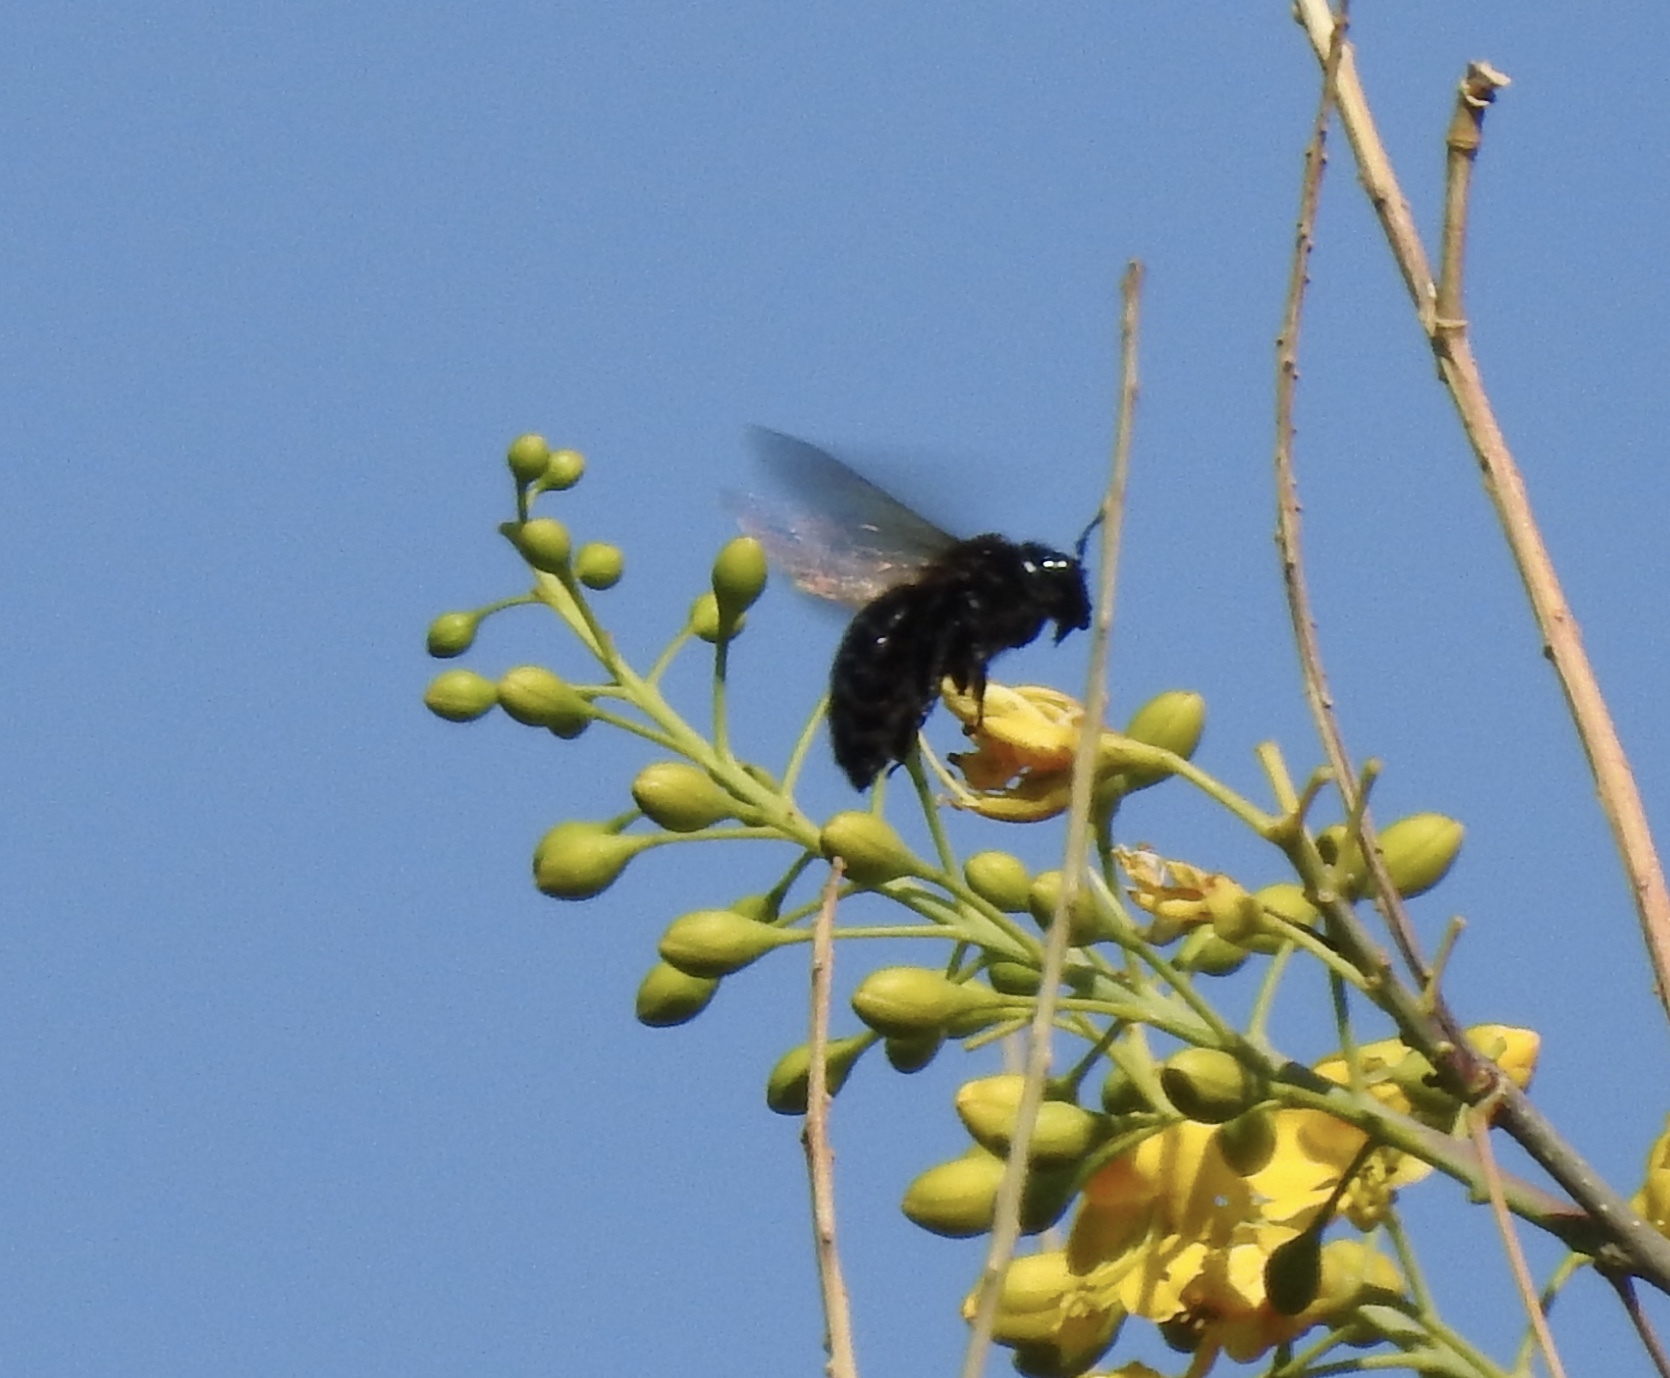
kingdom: Animalia
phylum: Arthropoda
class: Insecta
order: Hymenoptera
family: Apidae
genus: Xylocopa
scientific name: Xylocopa sonorina
